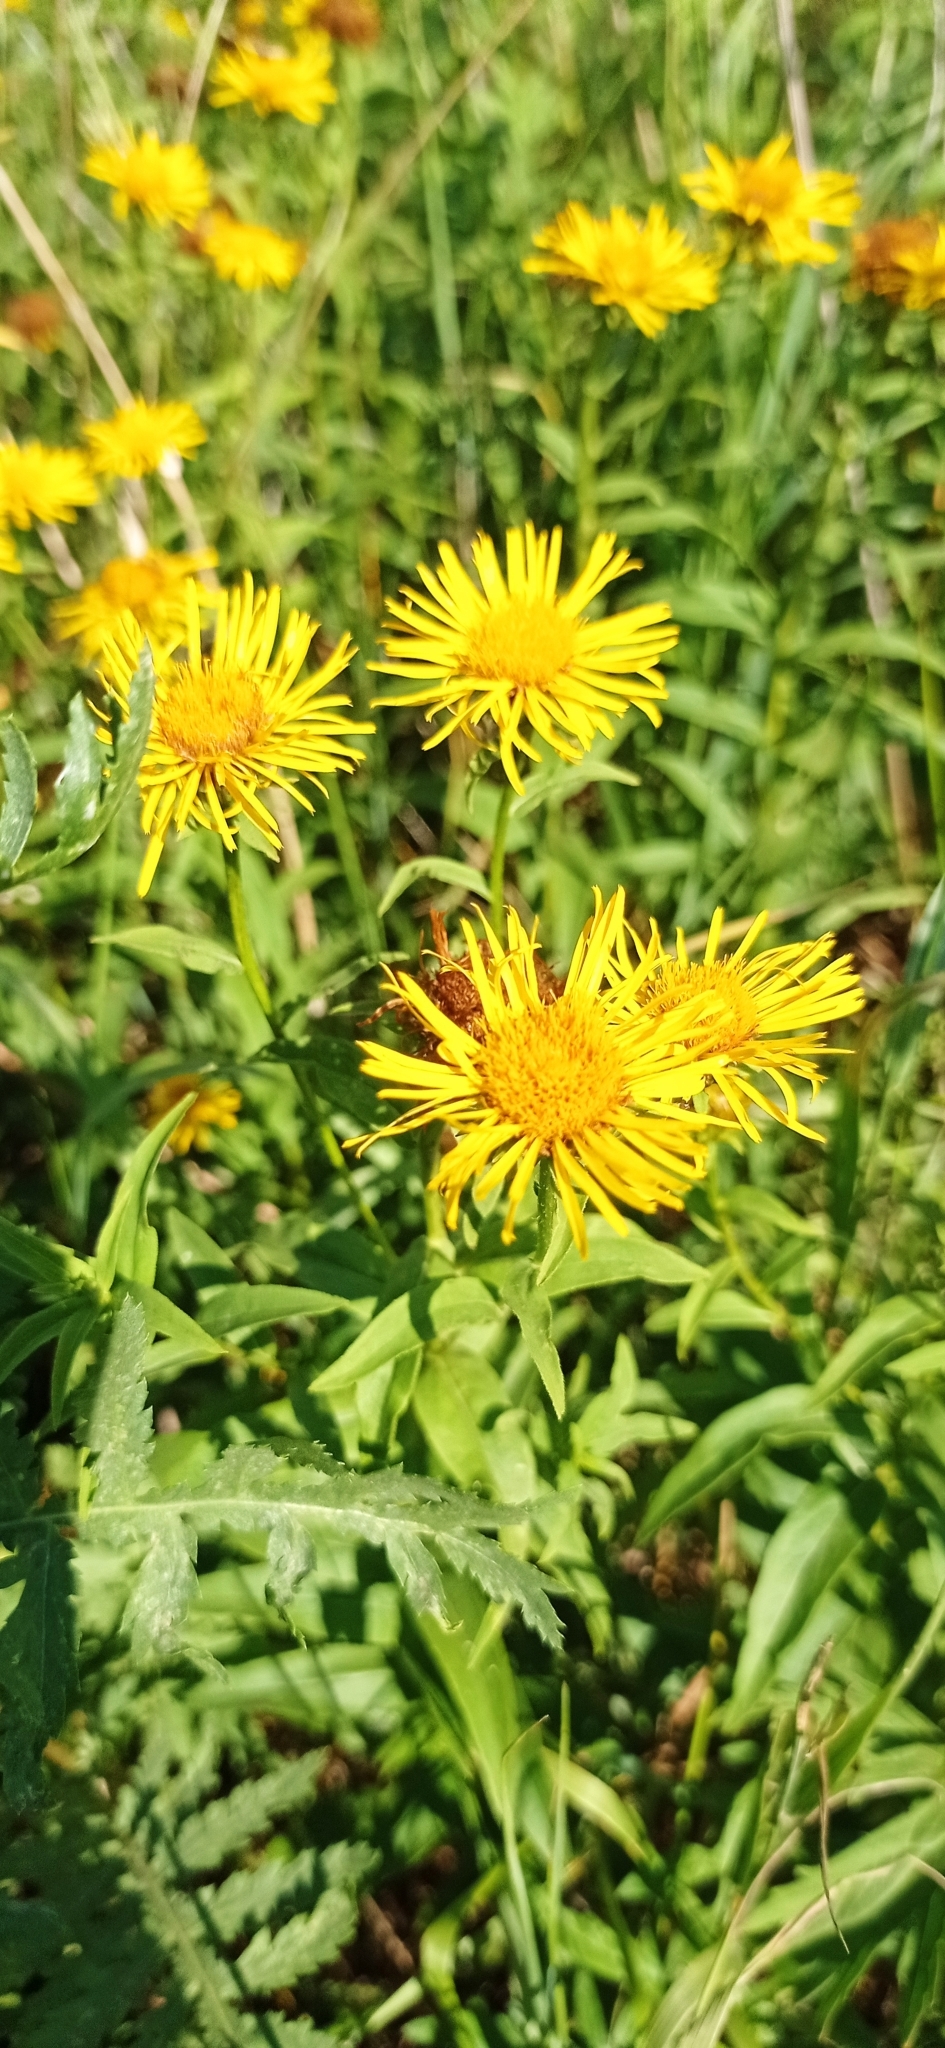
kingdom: Plantae
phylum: Tracheophyta
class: Magnoliopsida
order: Asterales
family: Asteraceae
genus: Pentanema
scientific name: Pentanema salicinum
